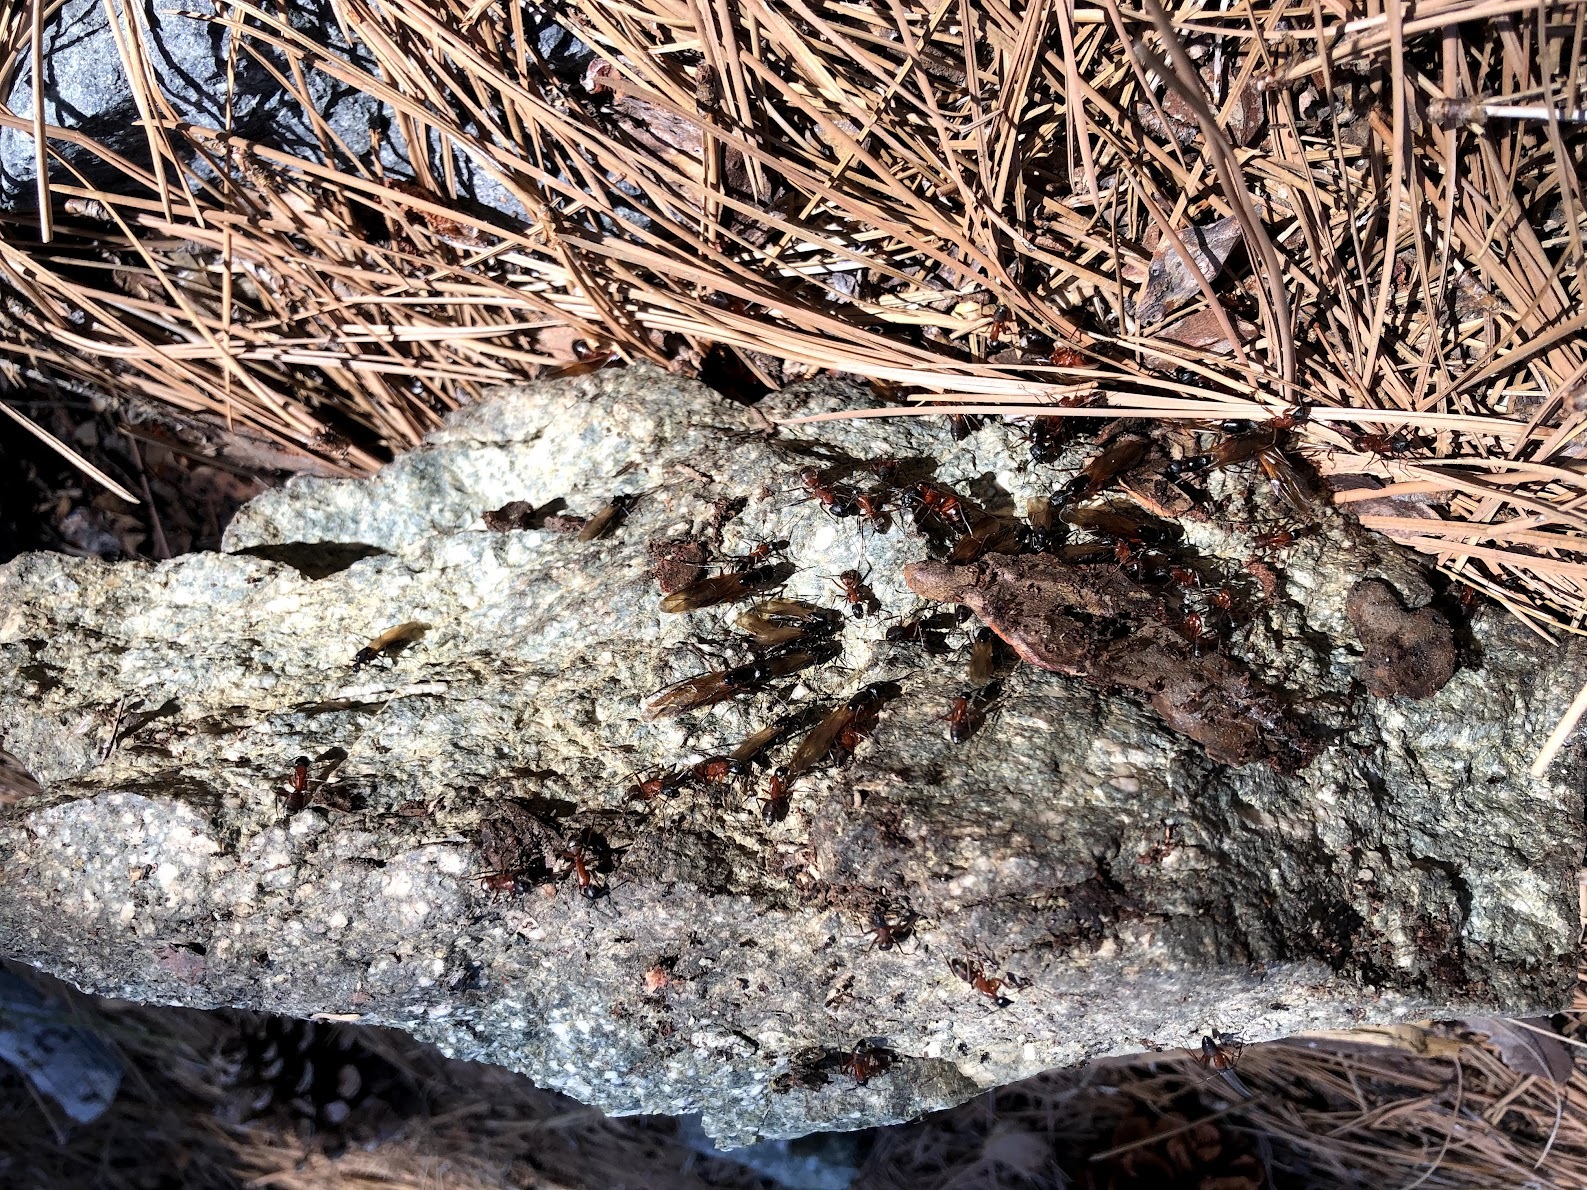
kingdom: Animalia
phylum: Arthropoda
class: Insecta
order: Hymenoptera
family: Formicidae
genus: Camponotus
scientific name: Camponotus vicinus
